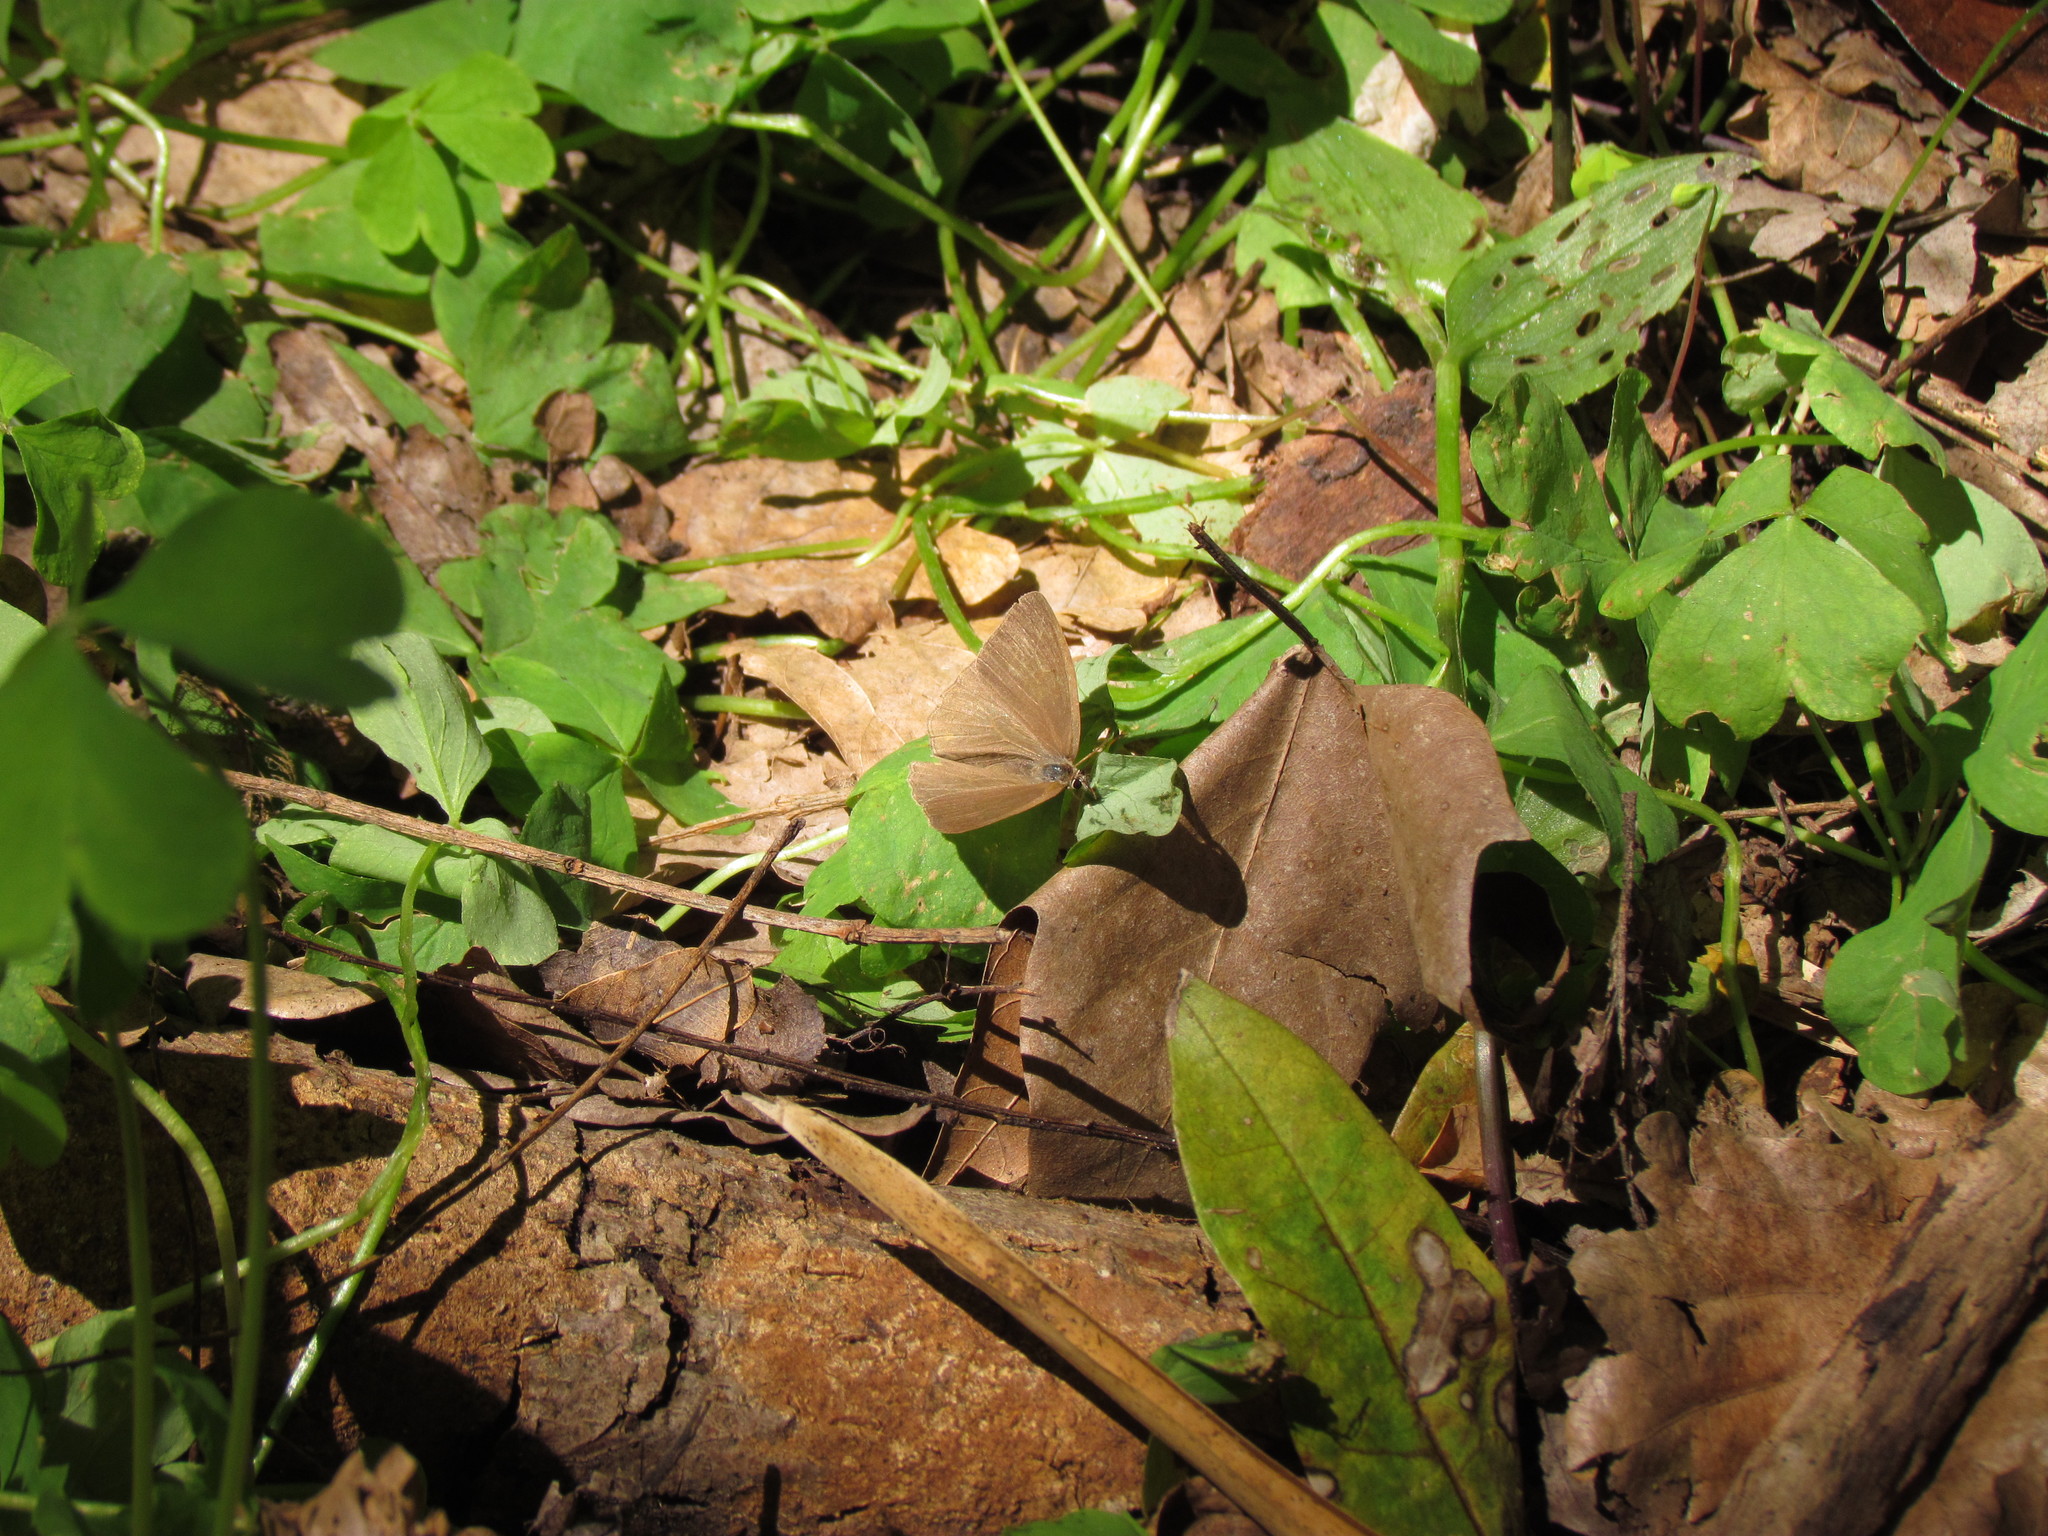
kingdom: Animalia
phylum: Arthropoda
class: Insecta
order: Lepidoptera
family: Nymphalidae
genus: Euptychia
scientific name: Euptychia
